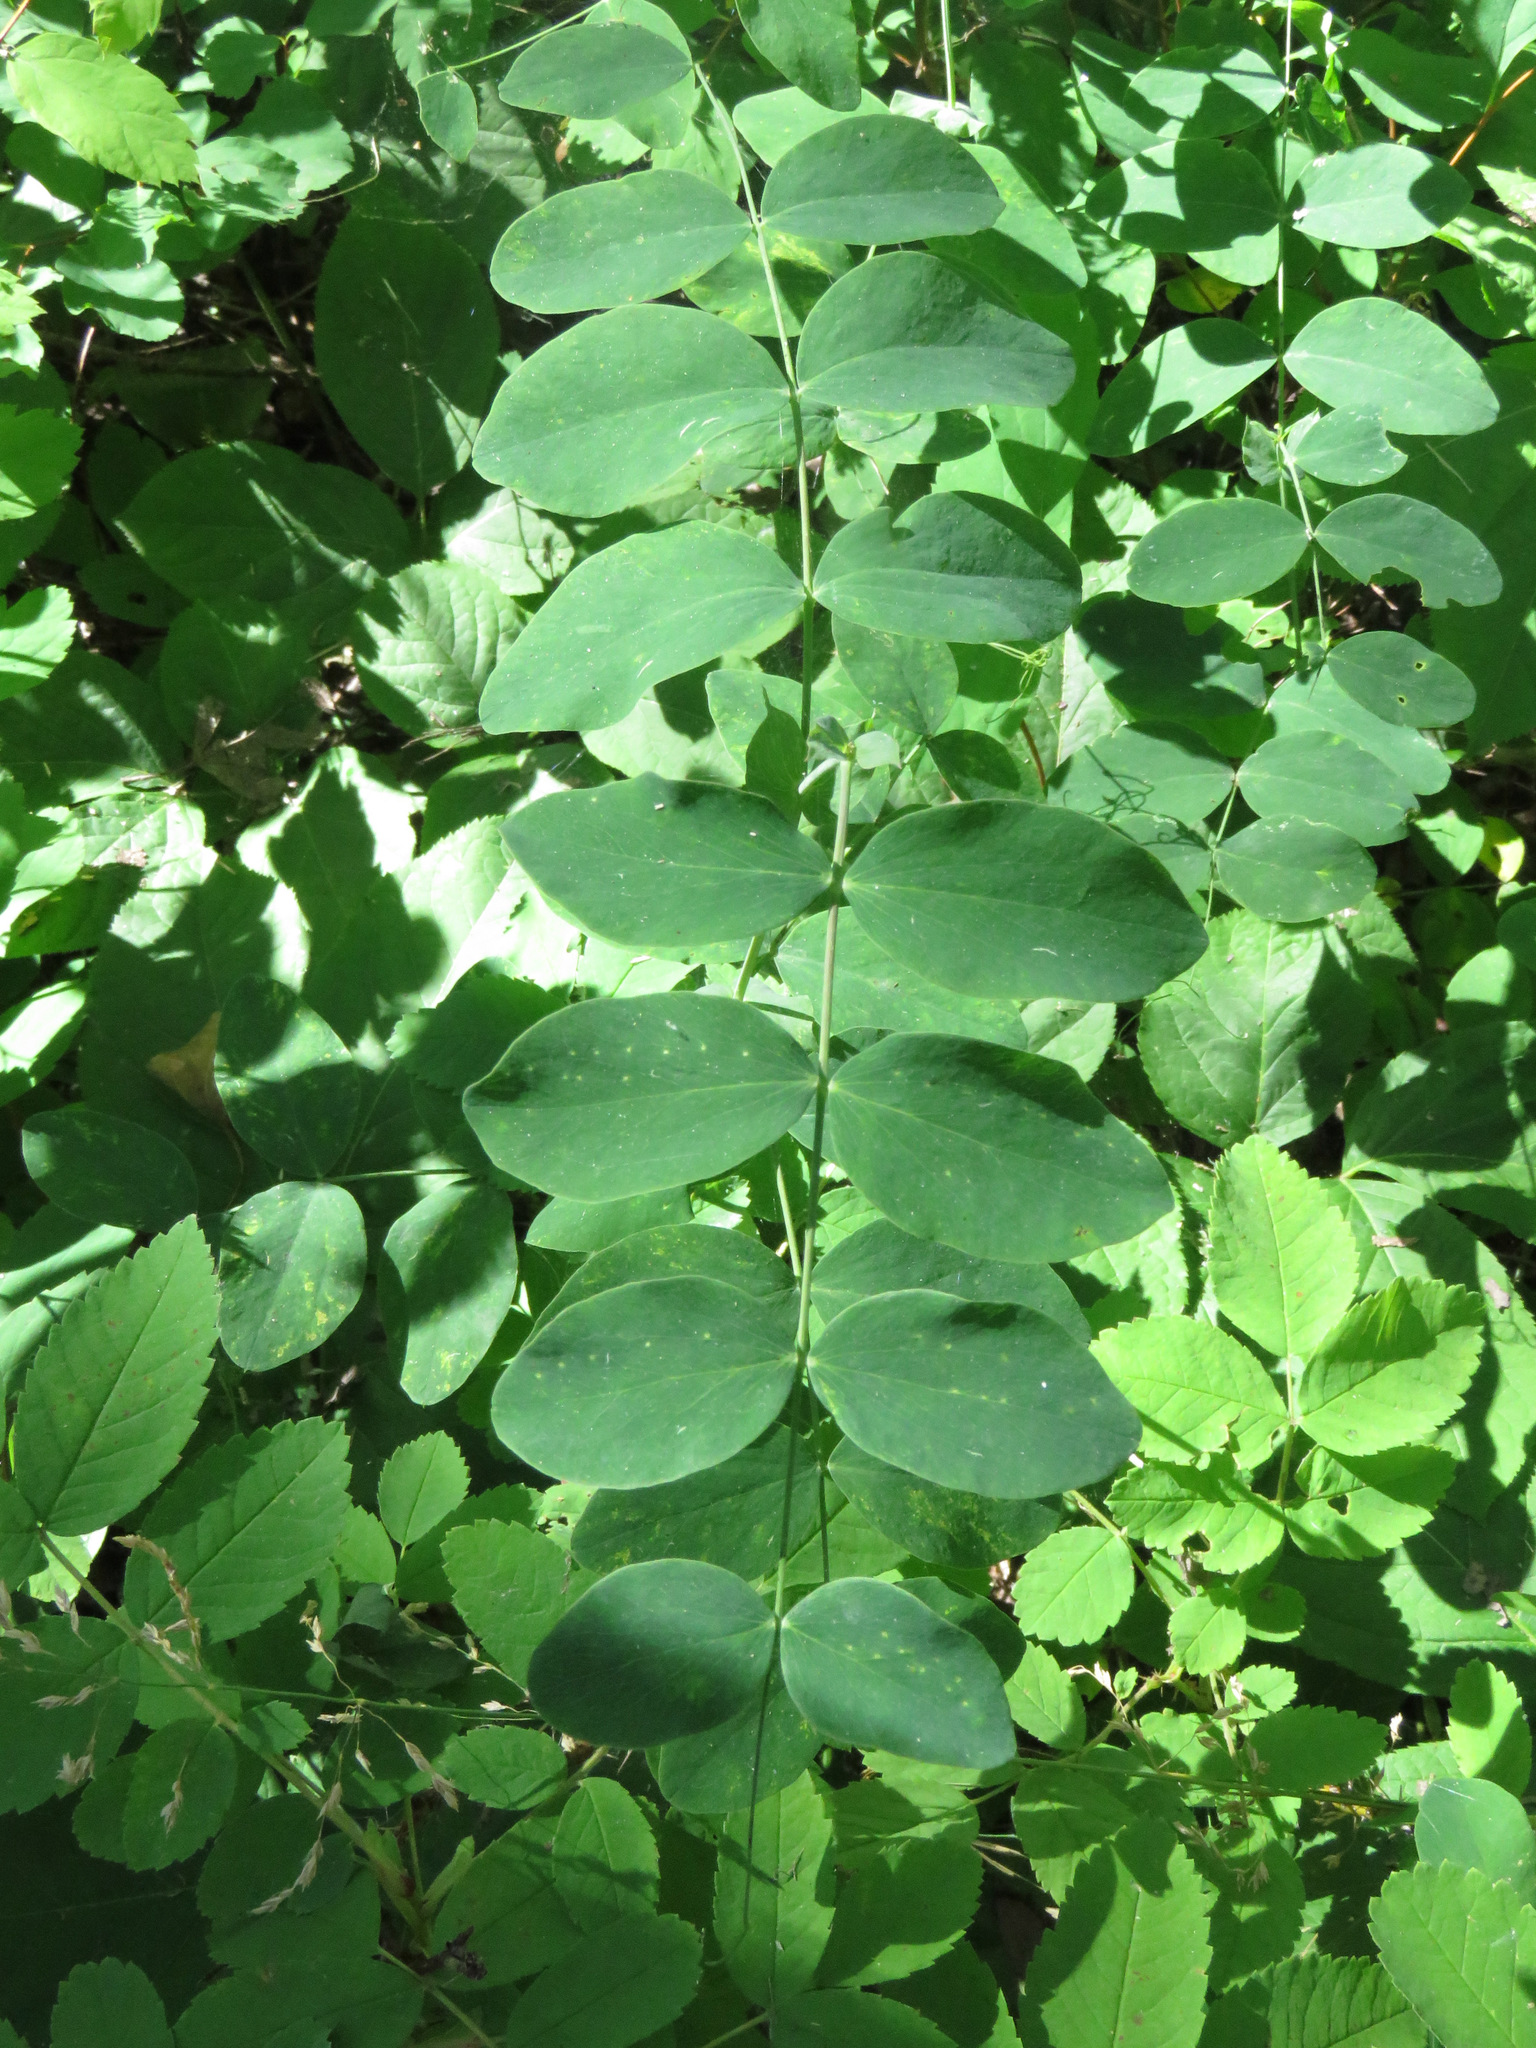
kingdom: Plantae
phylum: Tracheophyta
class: Magnoliopsida
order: Fabales
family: Fabaceae
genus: Lathyrus
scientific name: Lathyrus ochroleucus
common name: Pale vetchling
